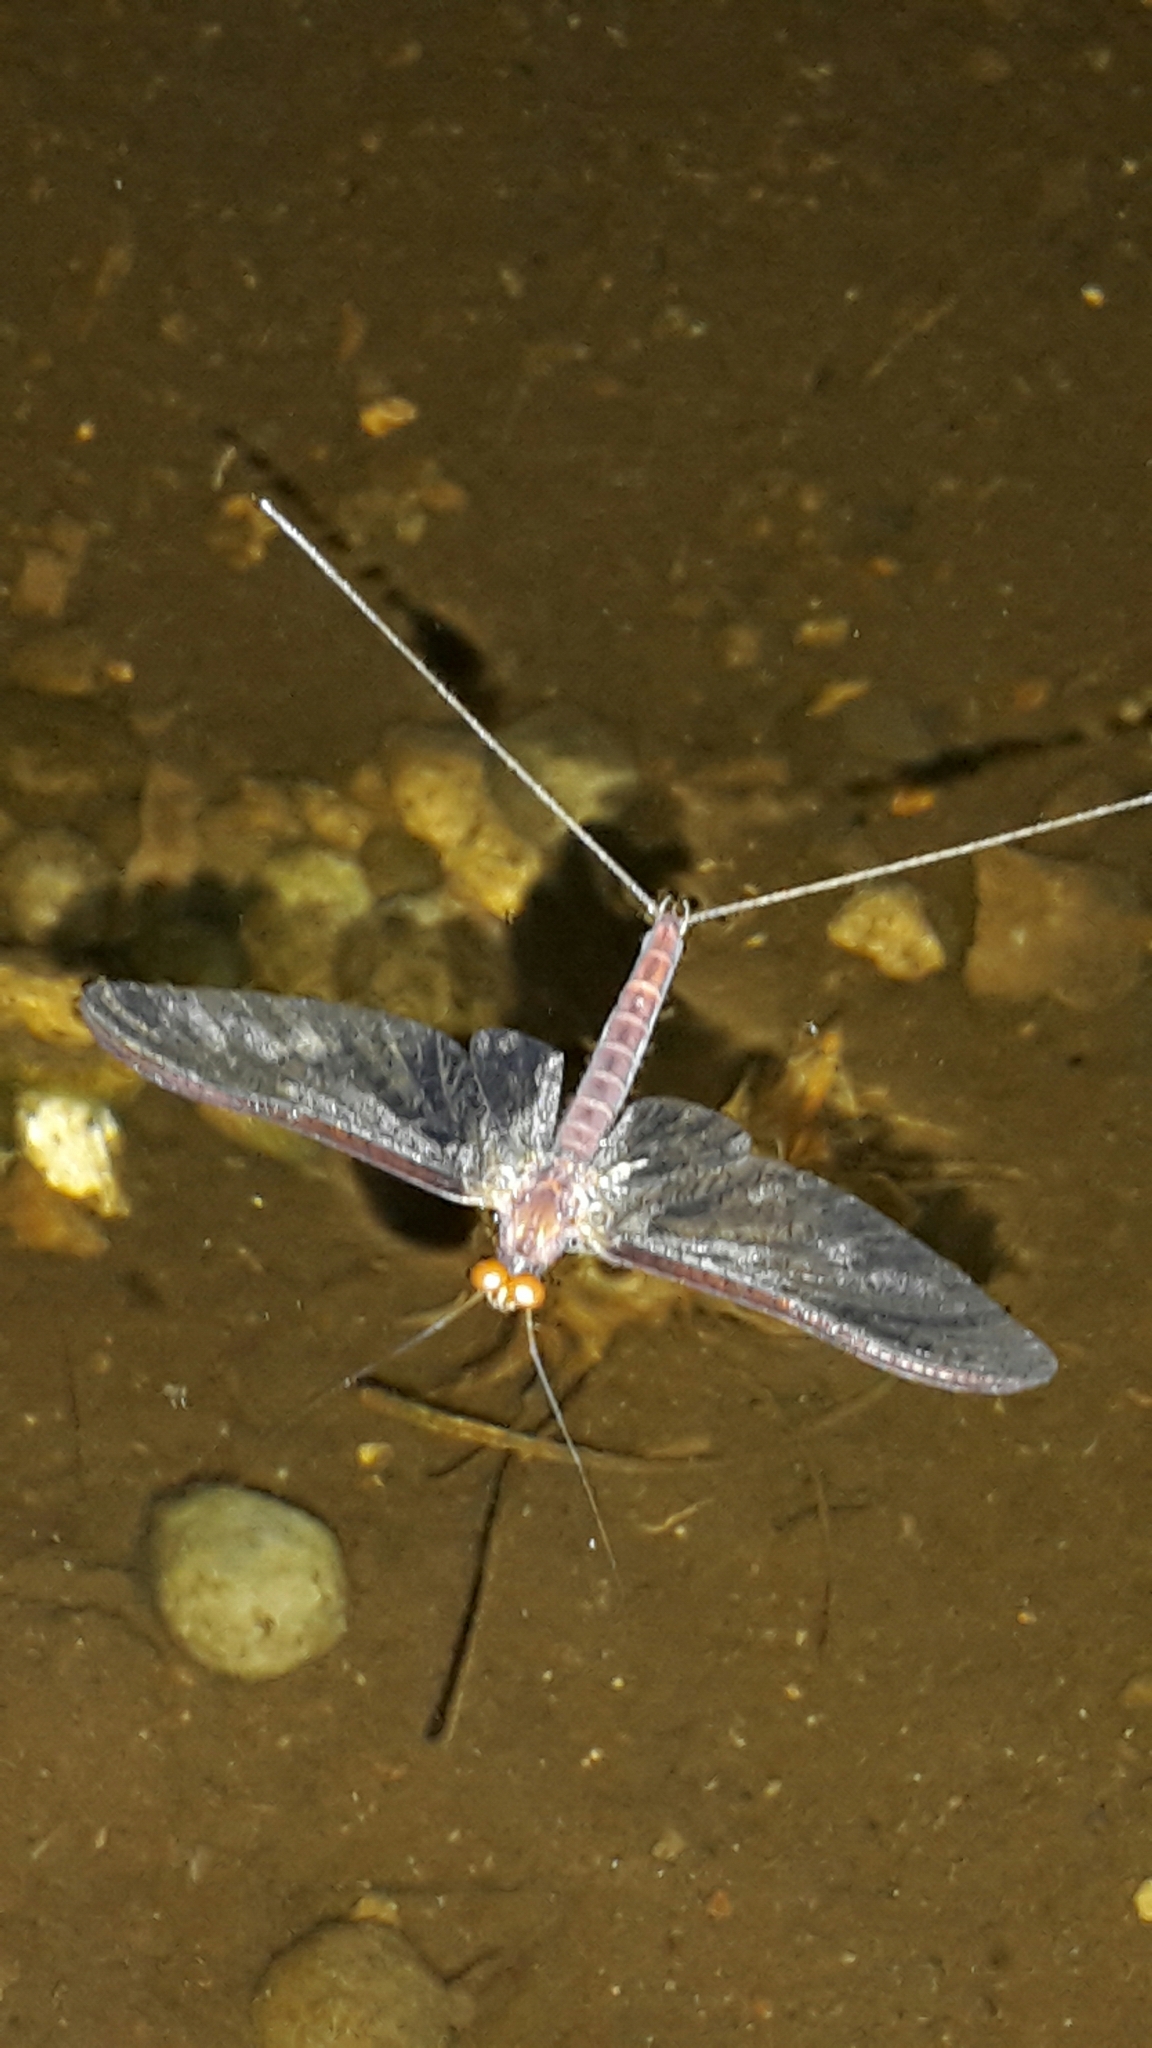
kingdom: Animalia
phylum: Arthropoda
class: Insecta
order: Ephemeroptera
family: Ichthybotidae
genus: Ichthybotus
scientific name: Ichthybotus hudsoni
